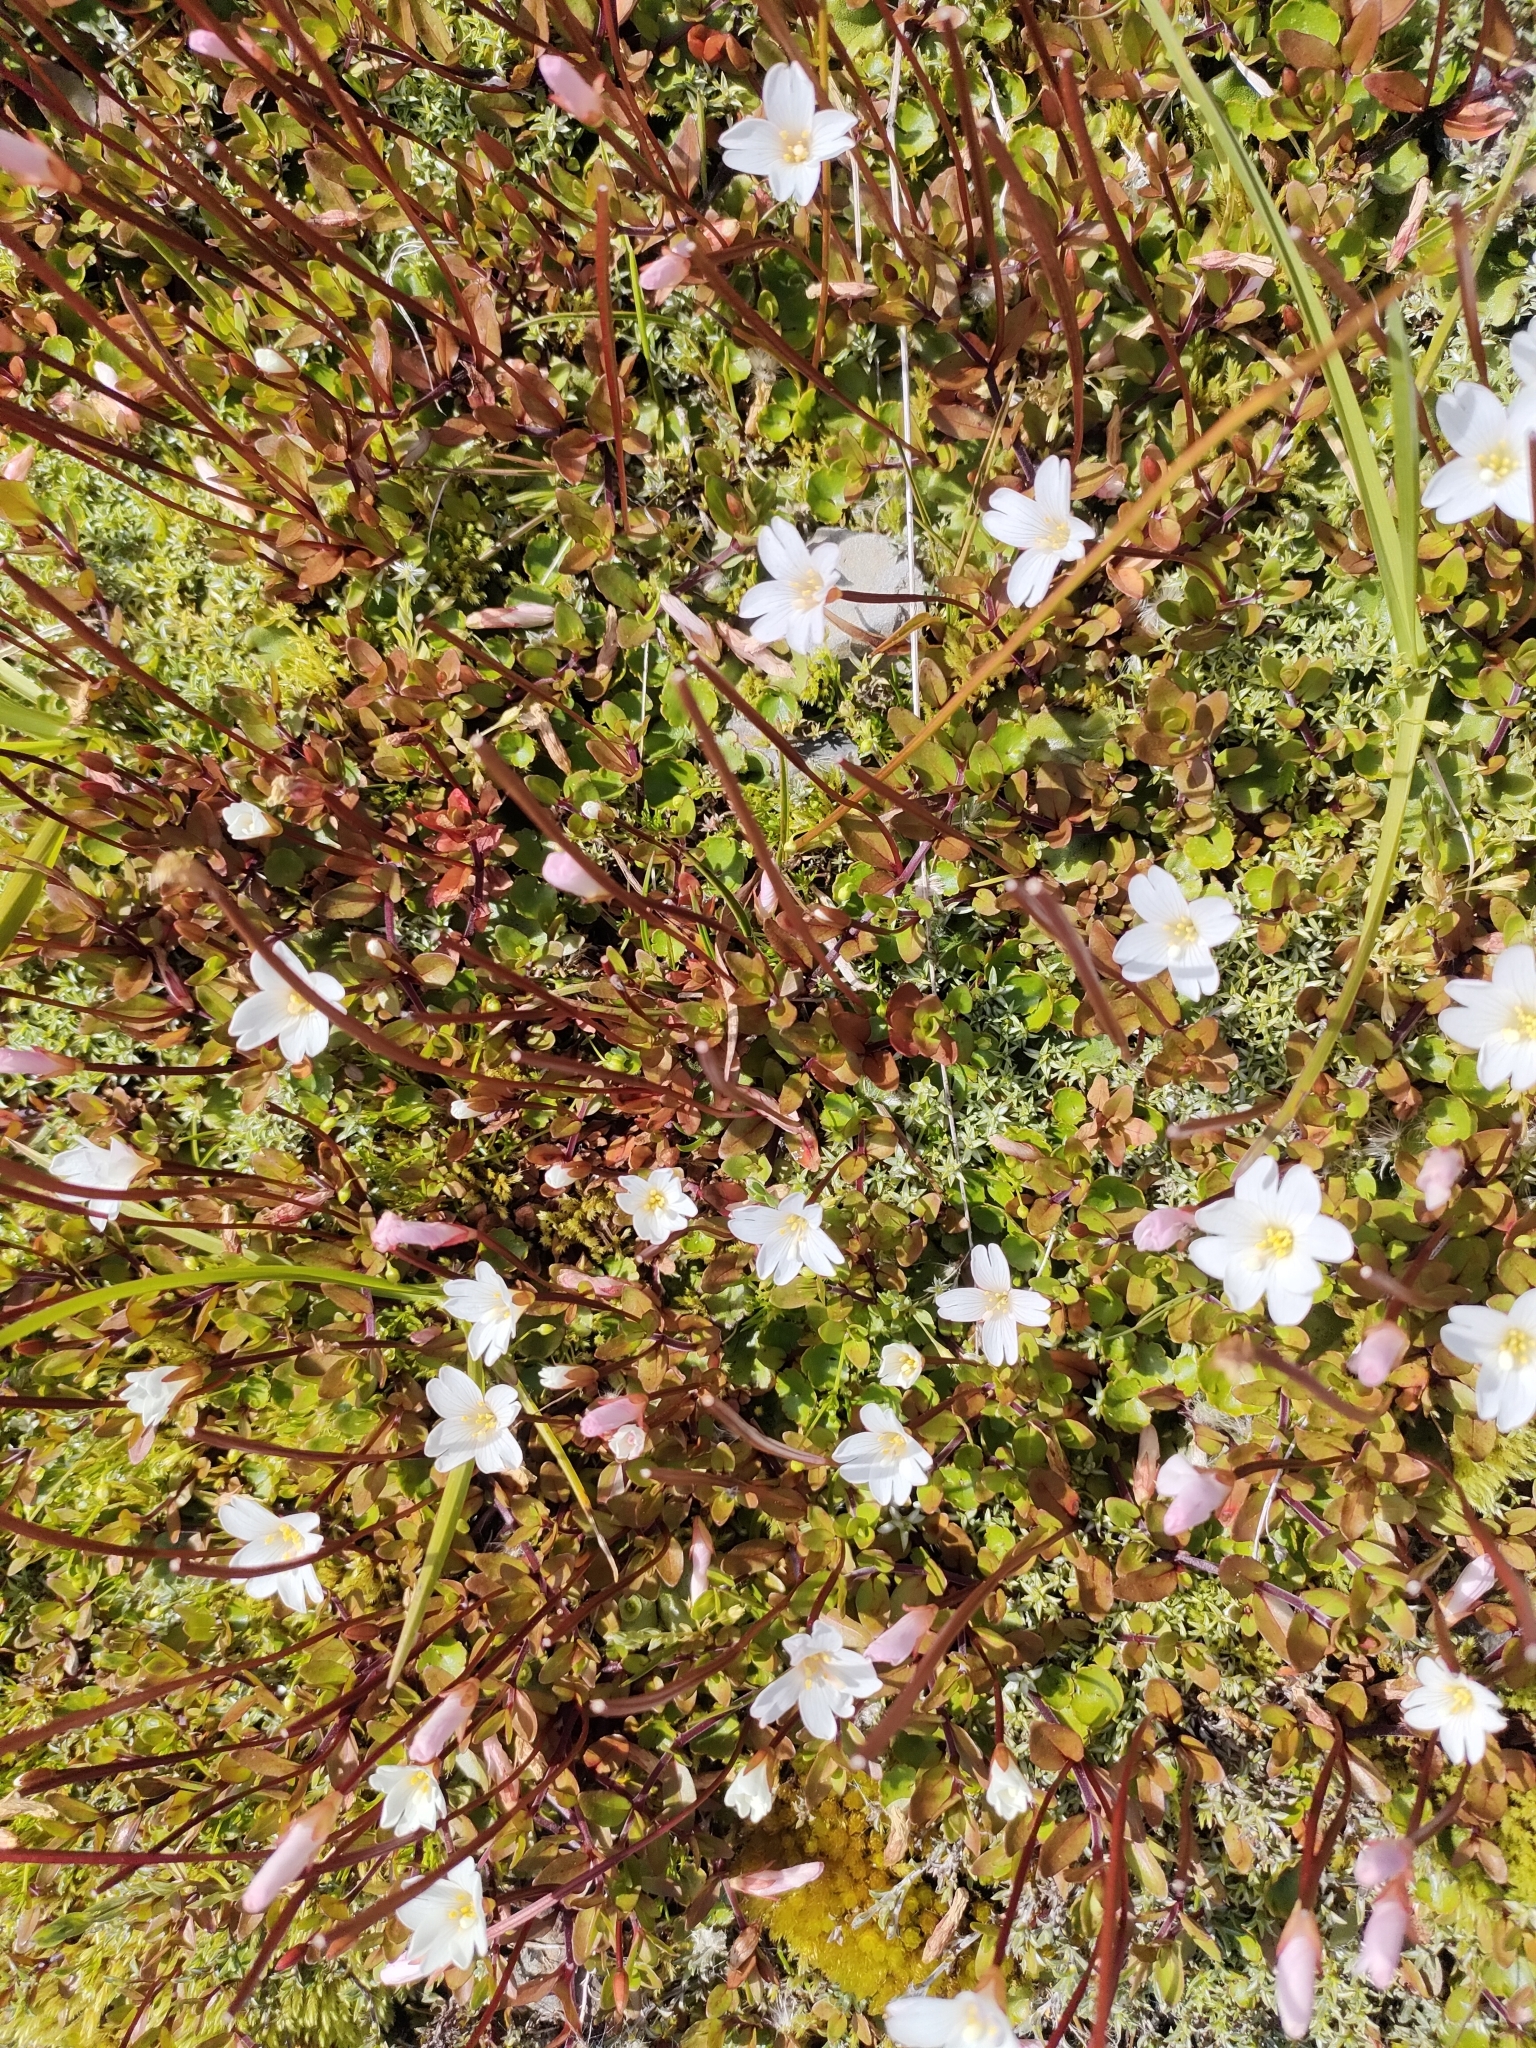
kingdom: Plantae
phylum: Tracheophyta
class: Magnoliopsida
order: Myrtales
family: Onagraceae
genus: Epilobium
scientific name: Epilobium macropus
